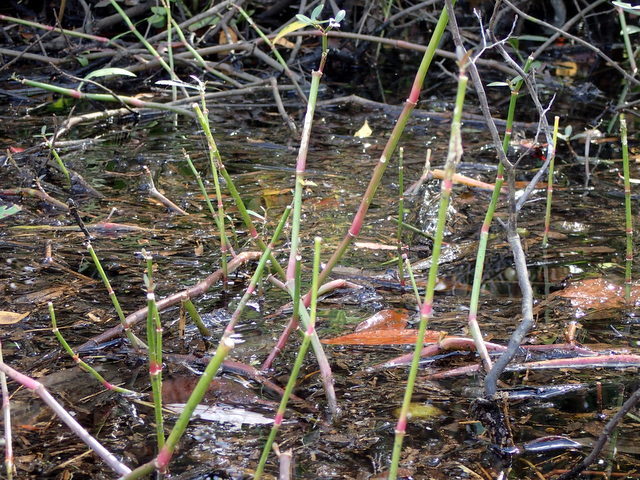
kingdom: Plantae
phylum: Tracheophyta
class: Magnoliopsida
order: Caryophyllales
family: Amaranthaceae
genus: Alternanthera
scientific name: Alternanthera philoxeroides
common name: Alligatorweed
